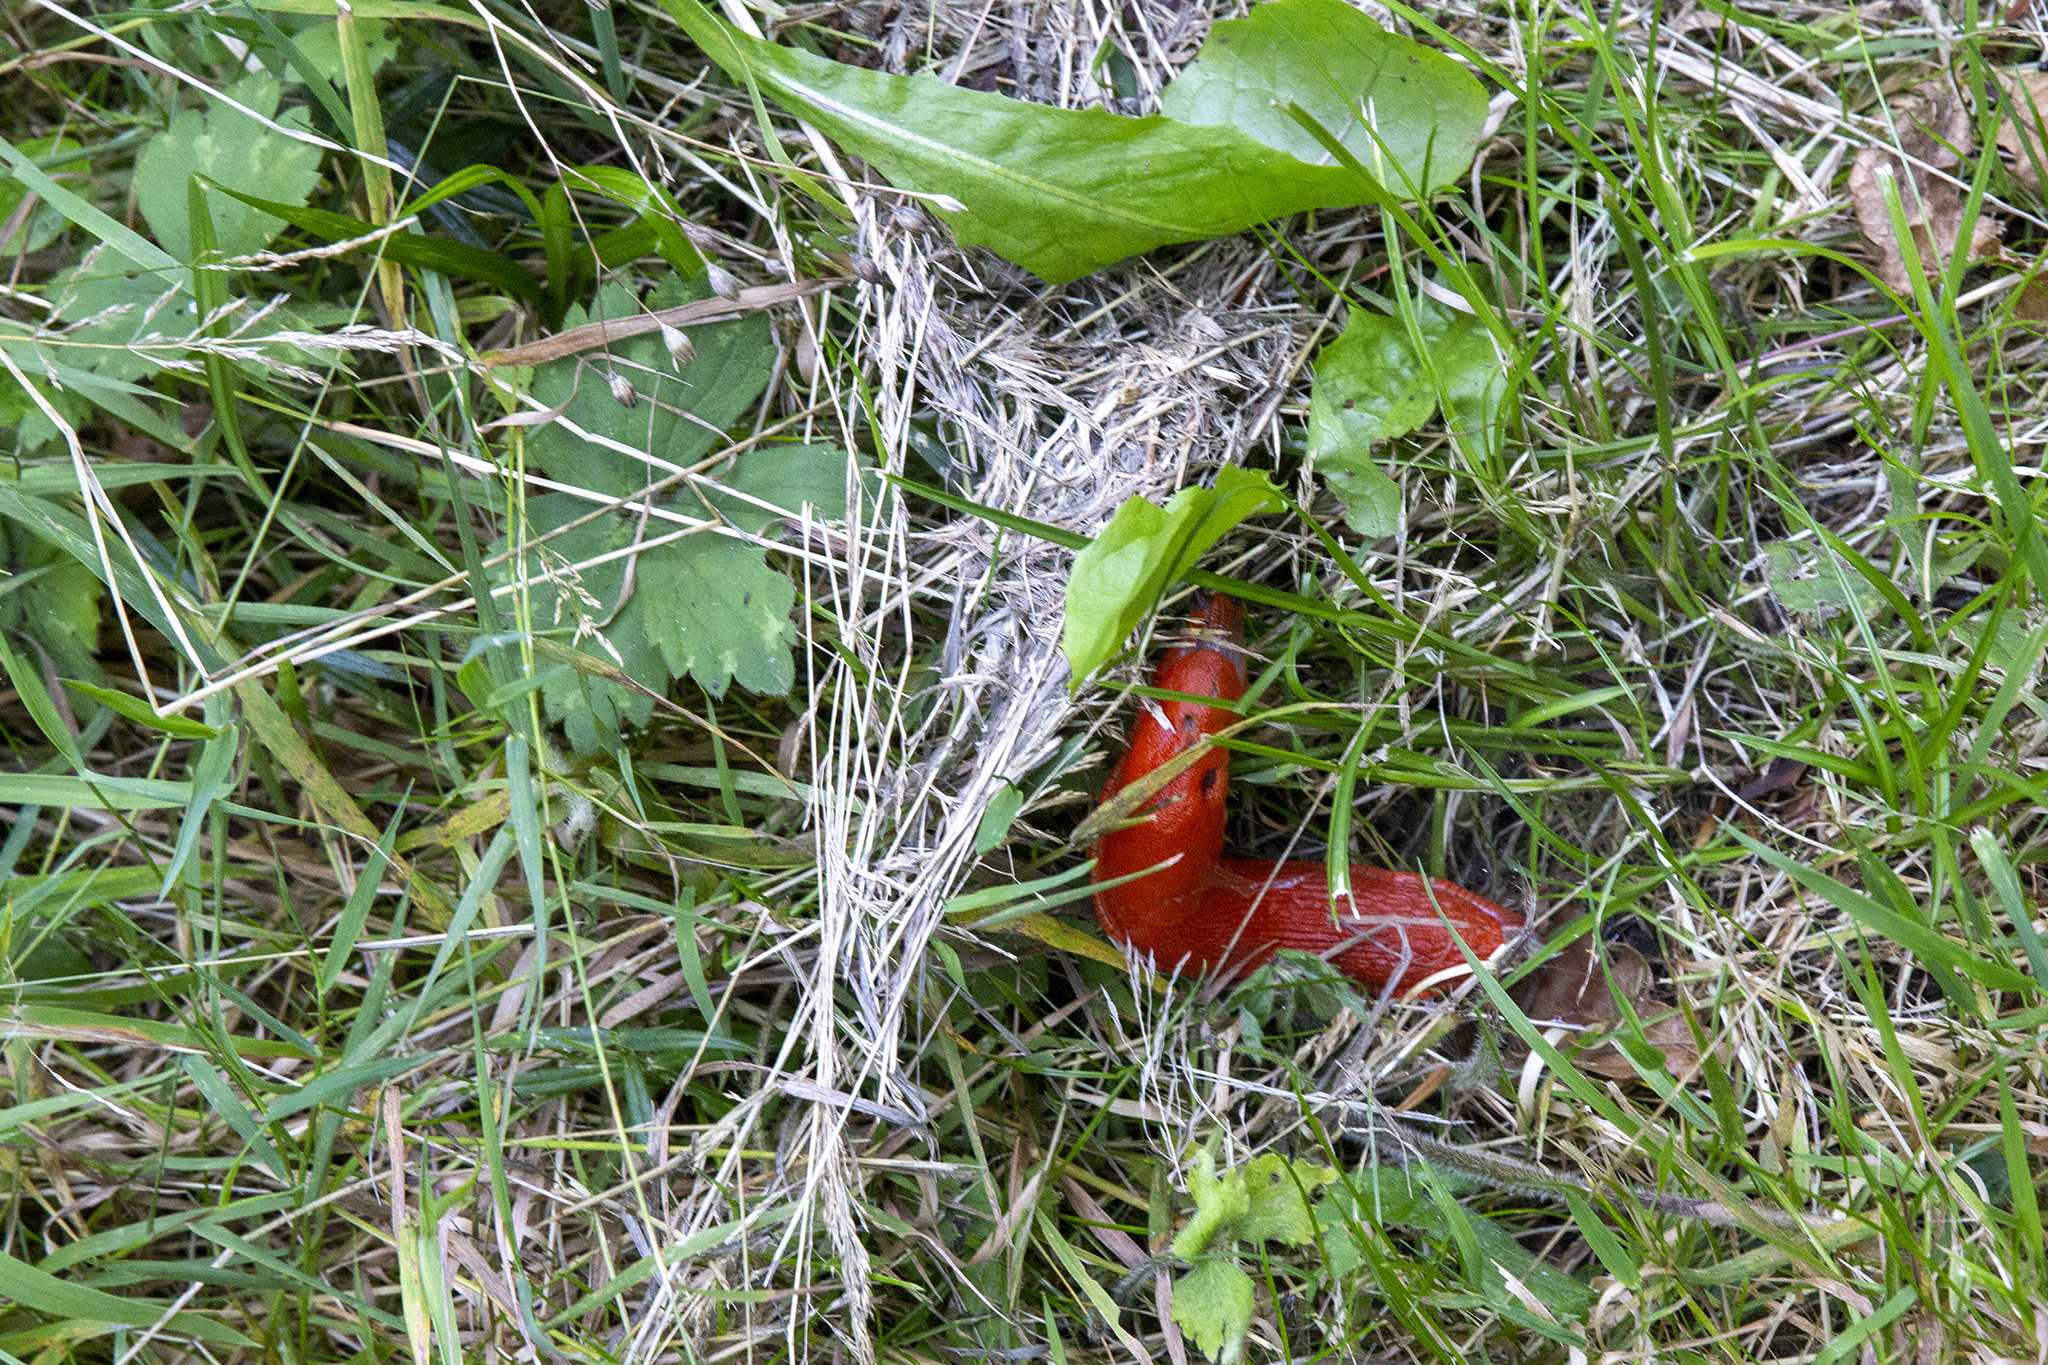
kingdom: Animalia
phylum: Mollusca
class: Gastropoda
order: Stylommatophora
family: Arionidae
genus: Arion
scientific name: Arion rufus
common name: Chocolate arion
